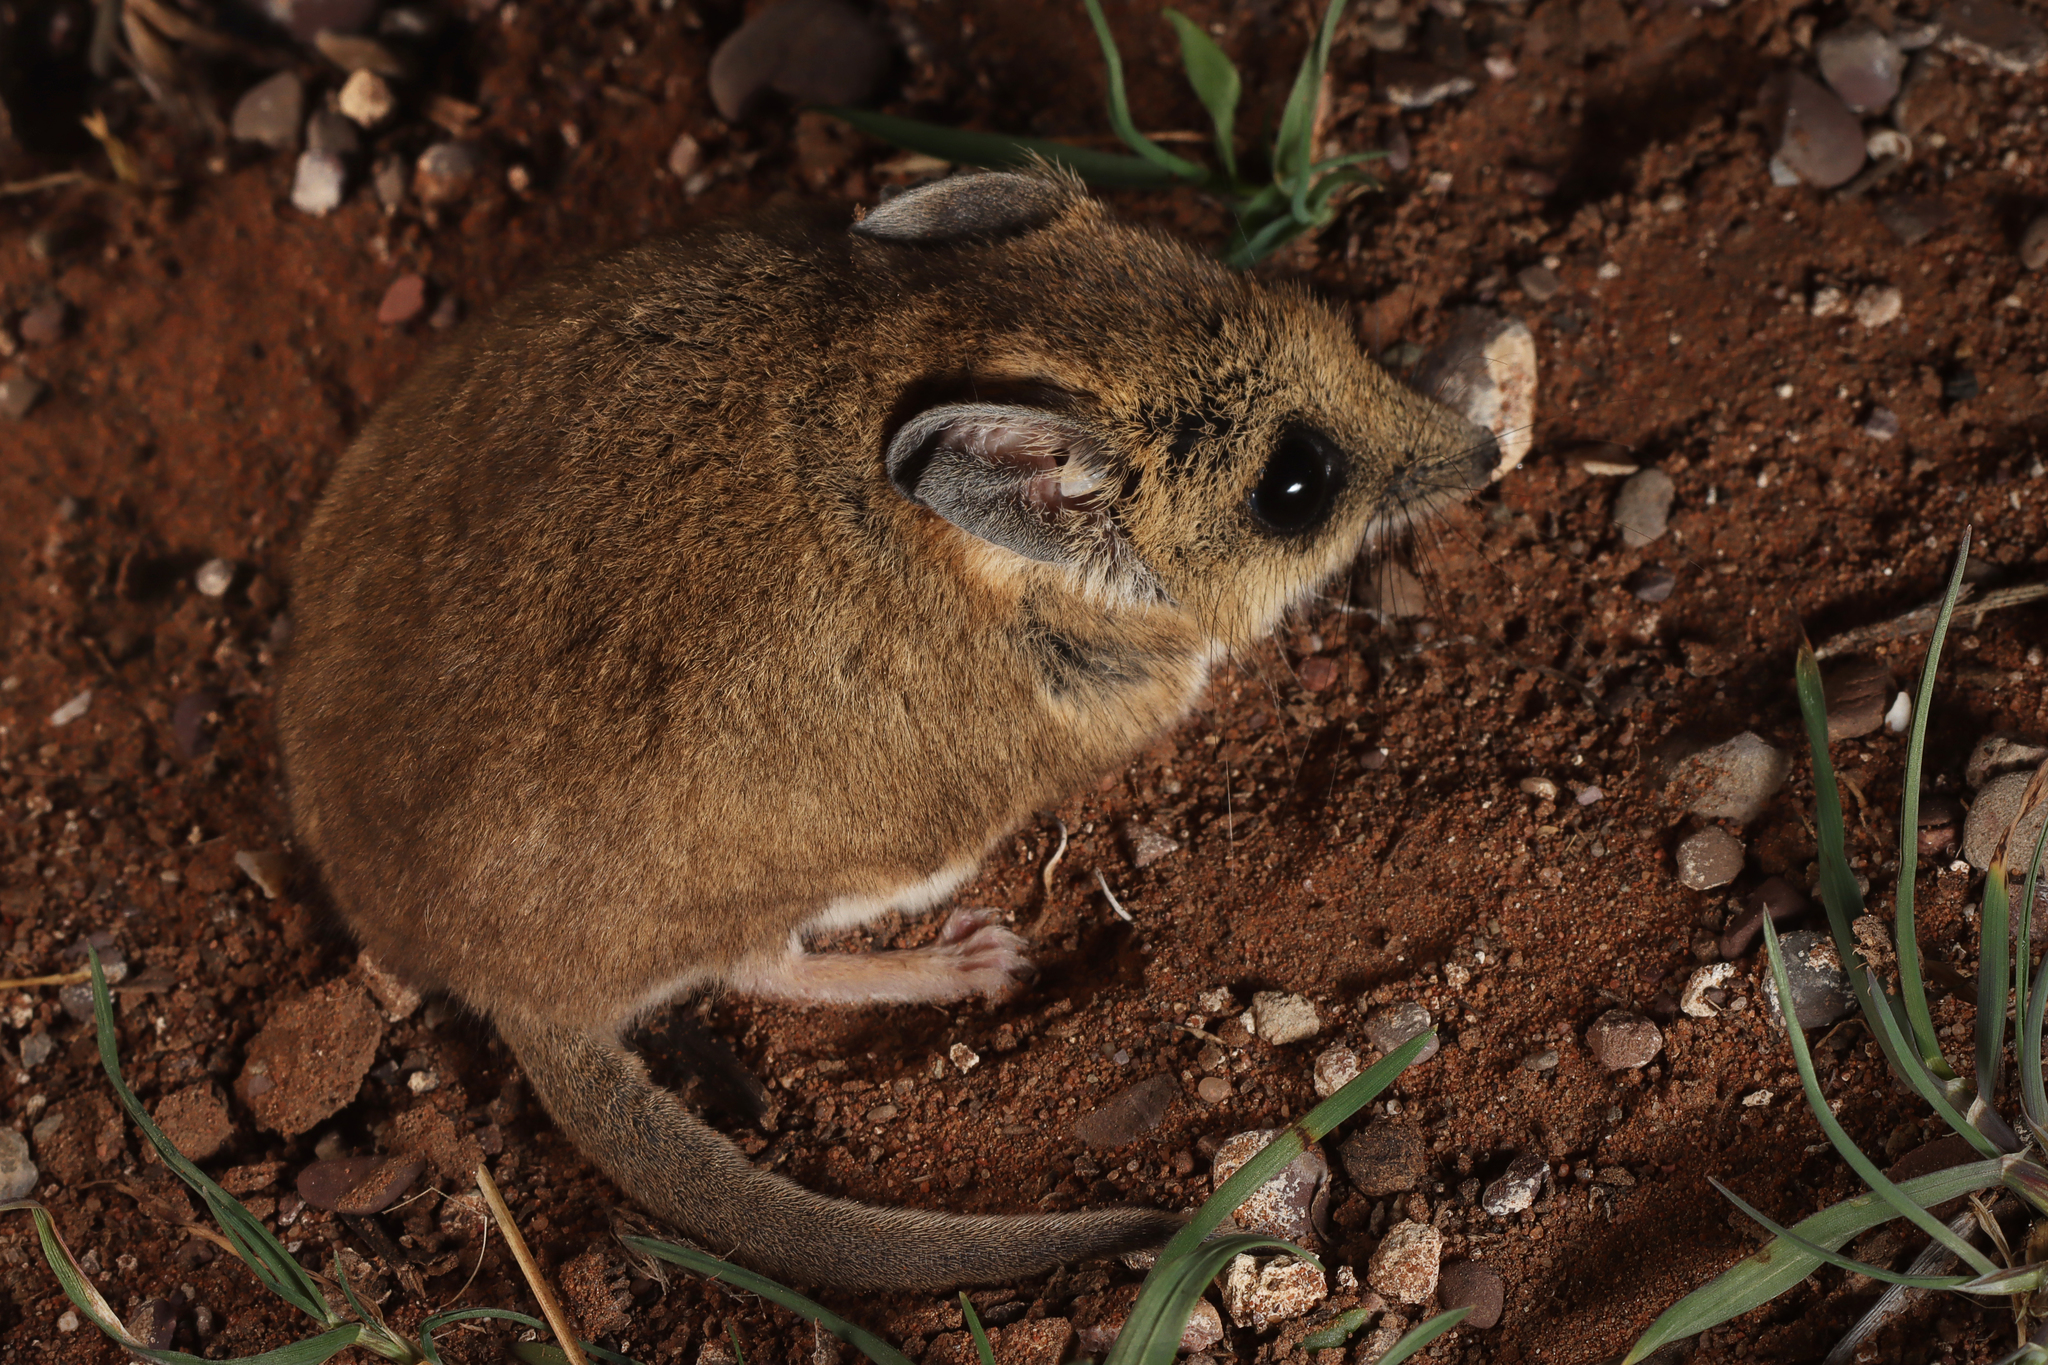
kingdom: Animalia
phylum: Chordata
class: Mammalia
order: Dasyuromorphia
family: Dasyuridae
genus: Sminthopsis
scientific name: Sminthopsis crassicaudata
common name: Fat-tailed dunnart
